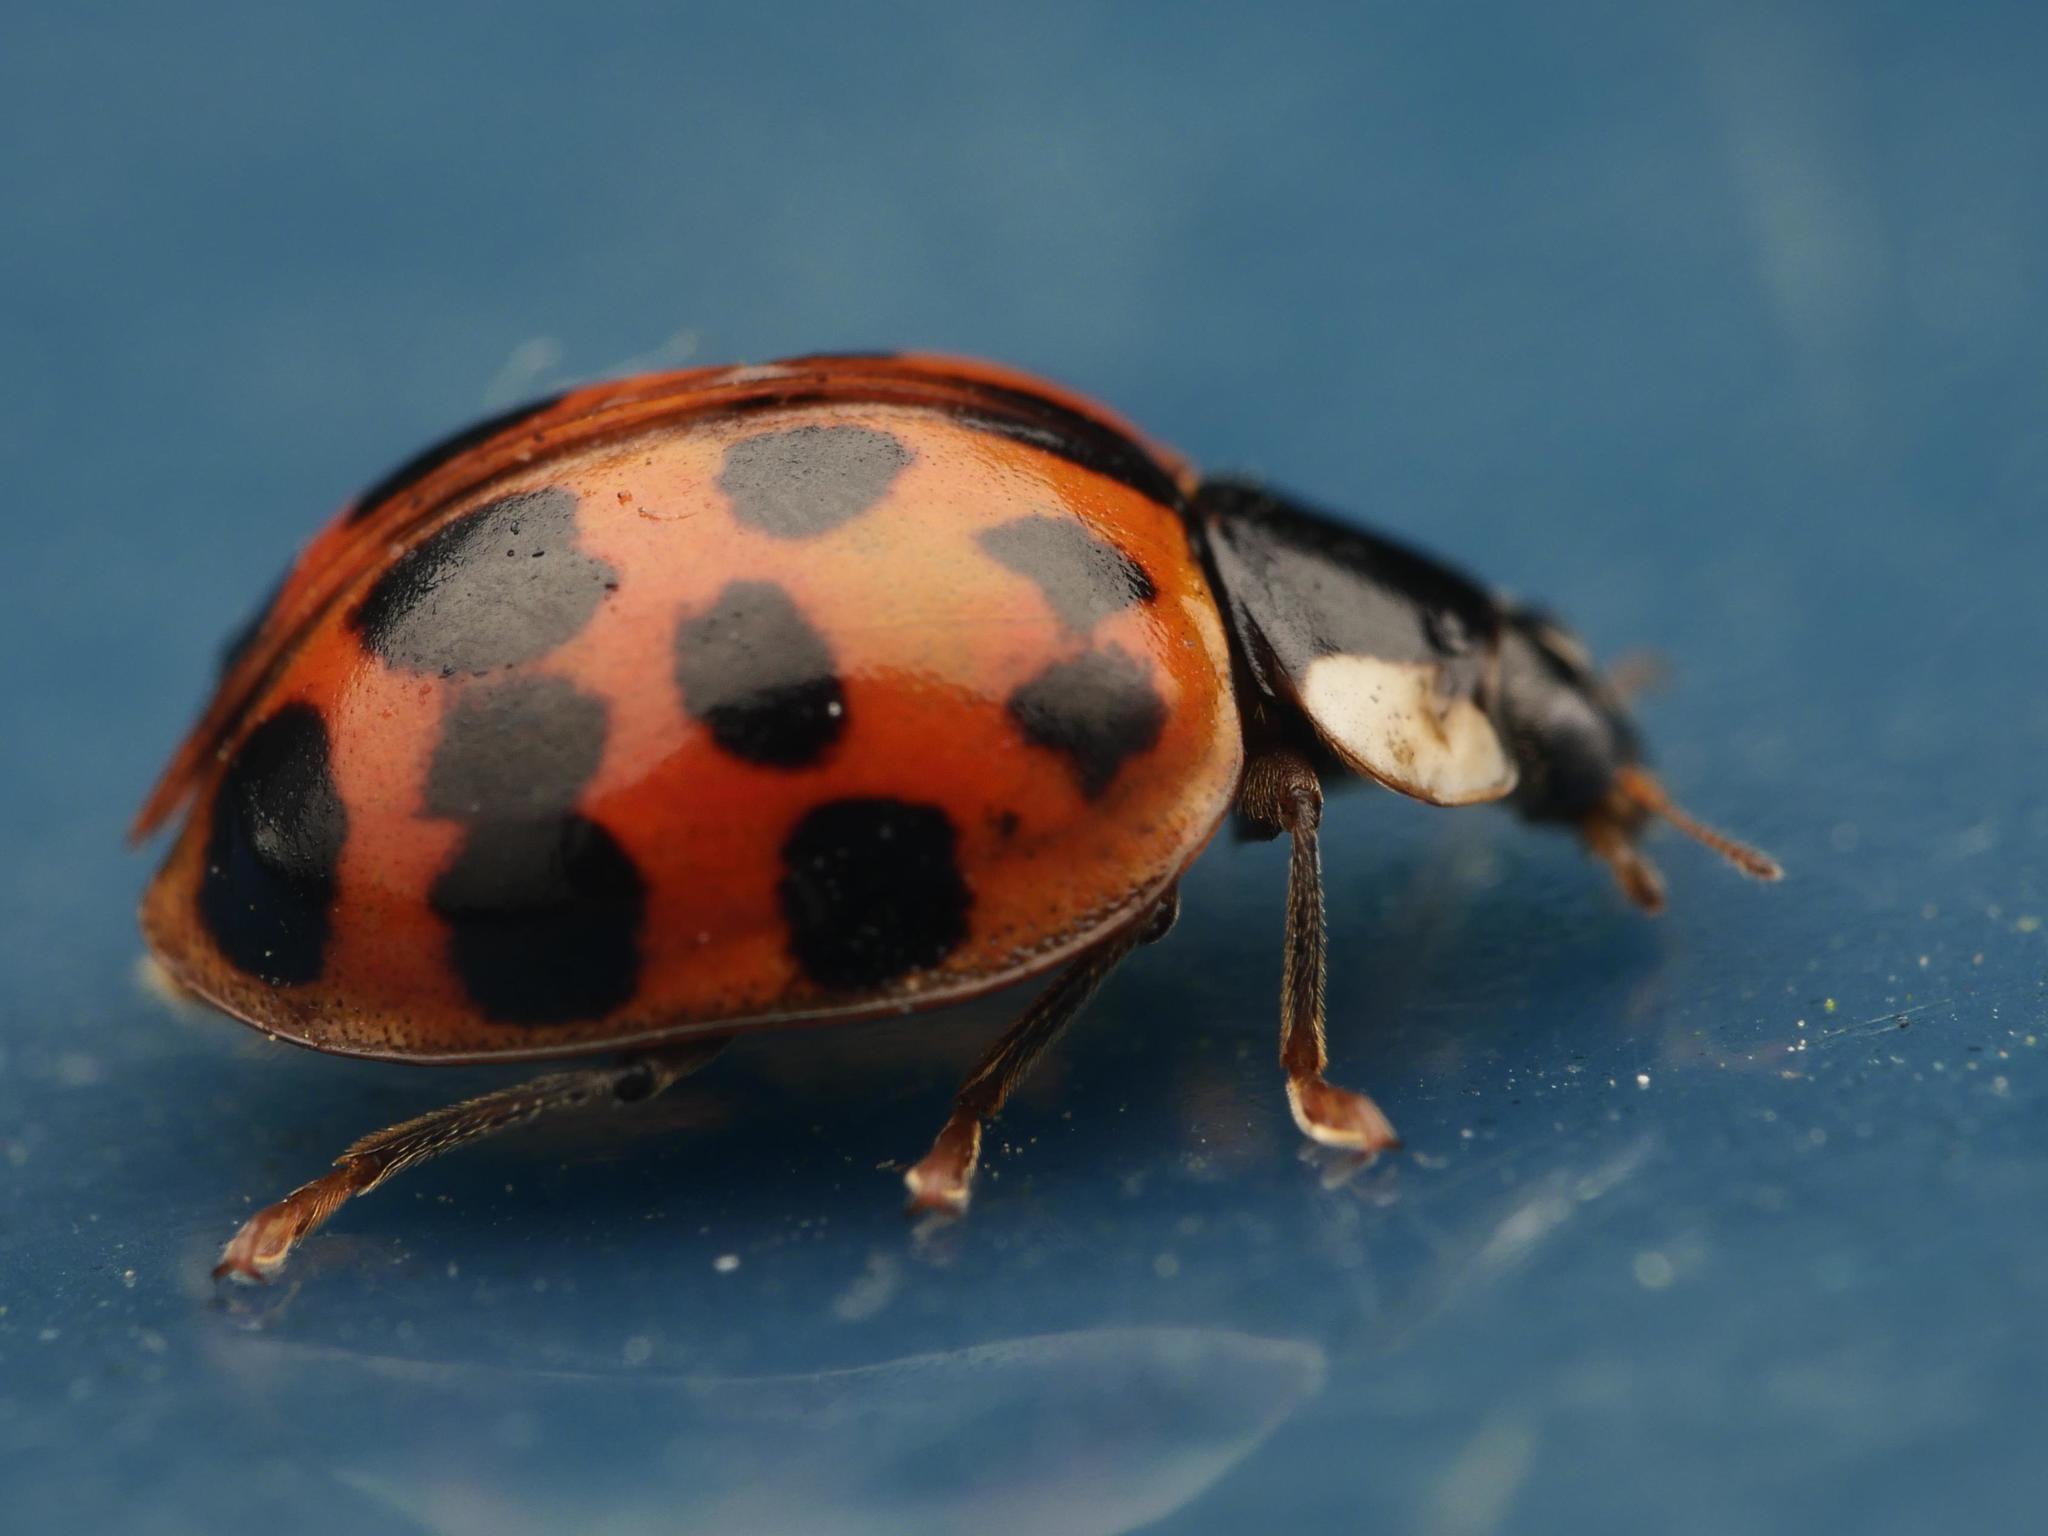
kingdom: Animalia
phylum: Arthropoda
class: Insecta
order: Coleoptera
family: Coccinellidae
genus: Harmonia
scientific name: Harmonia axyridis
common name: Harlequin ladybird
